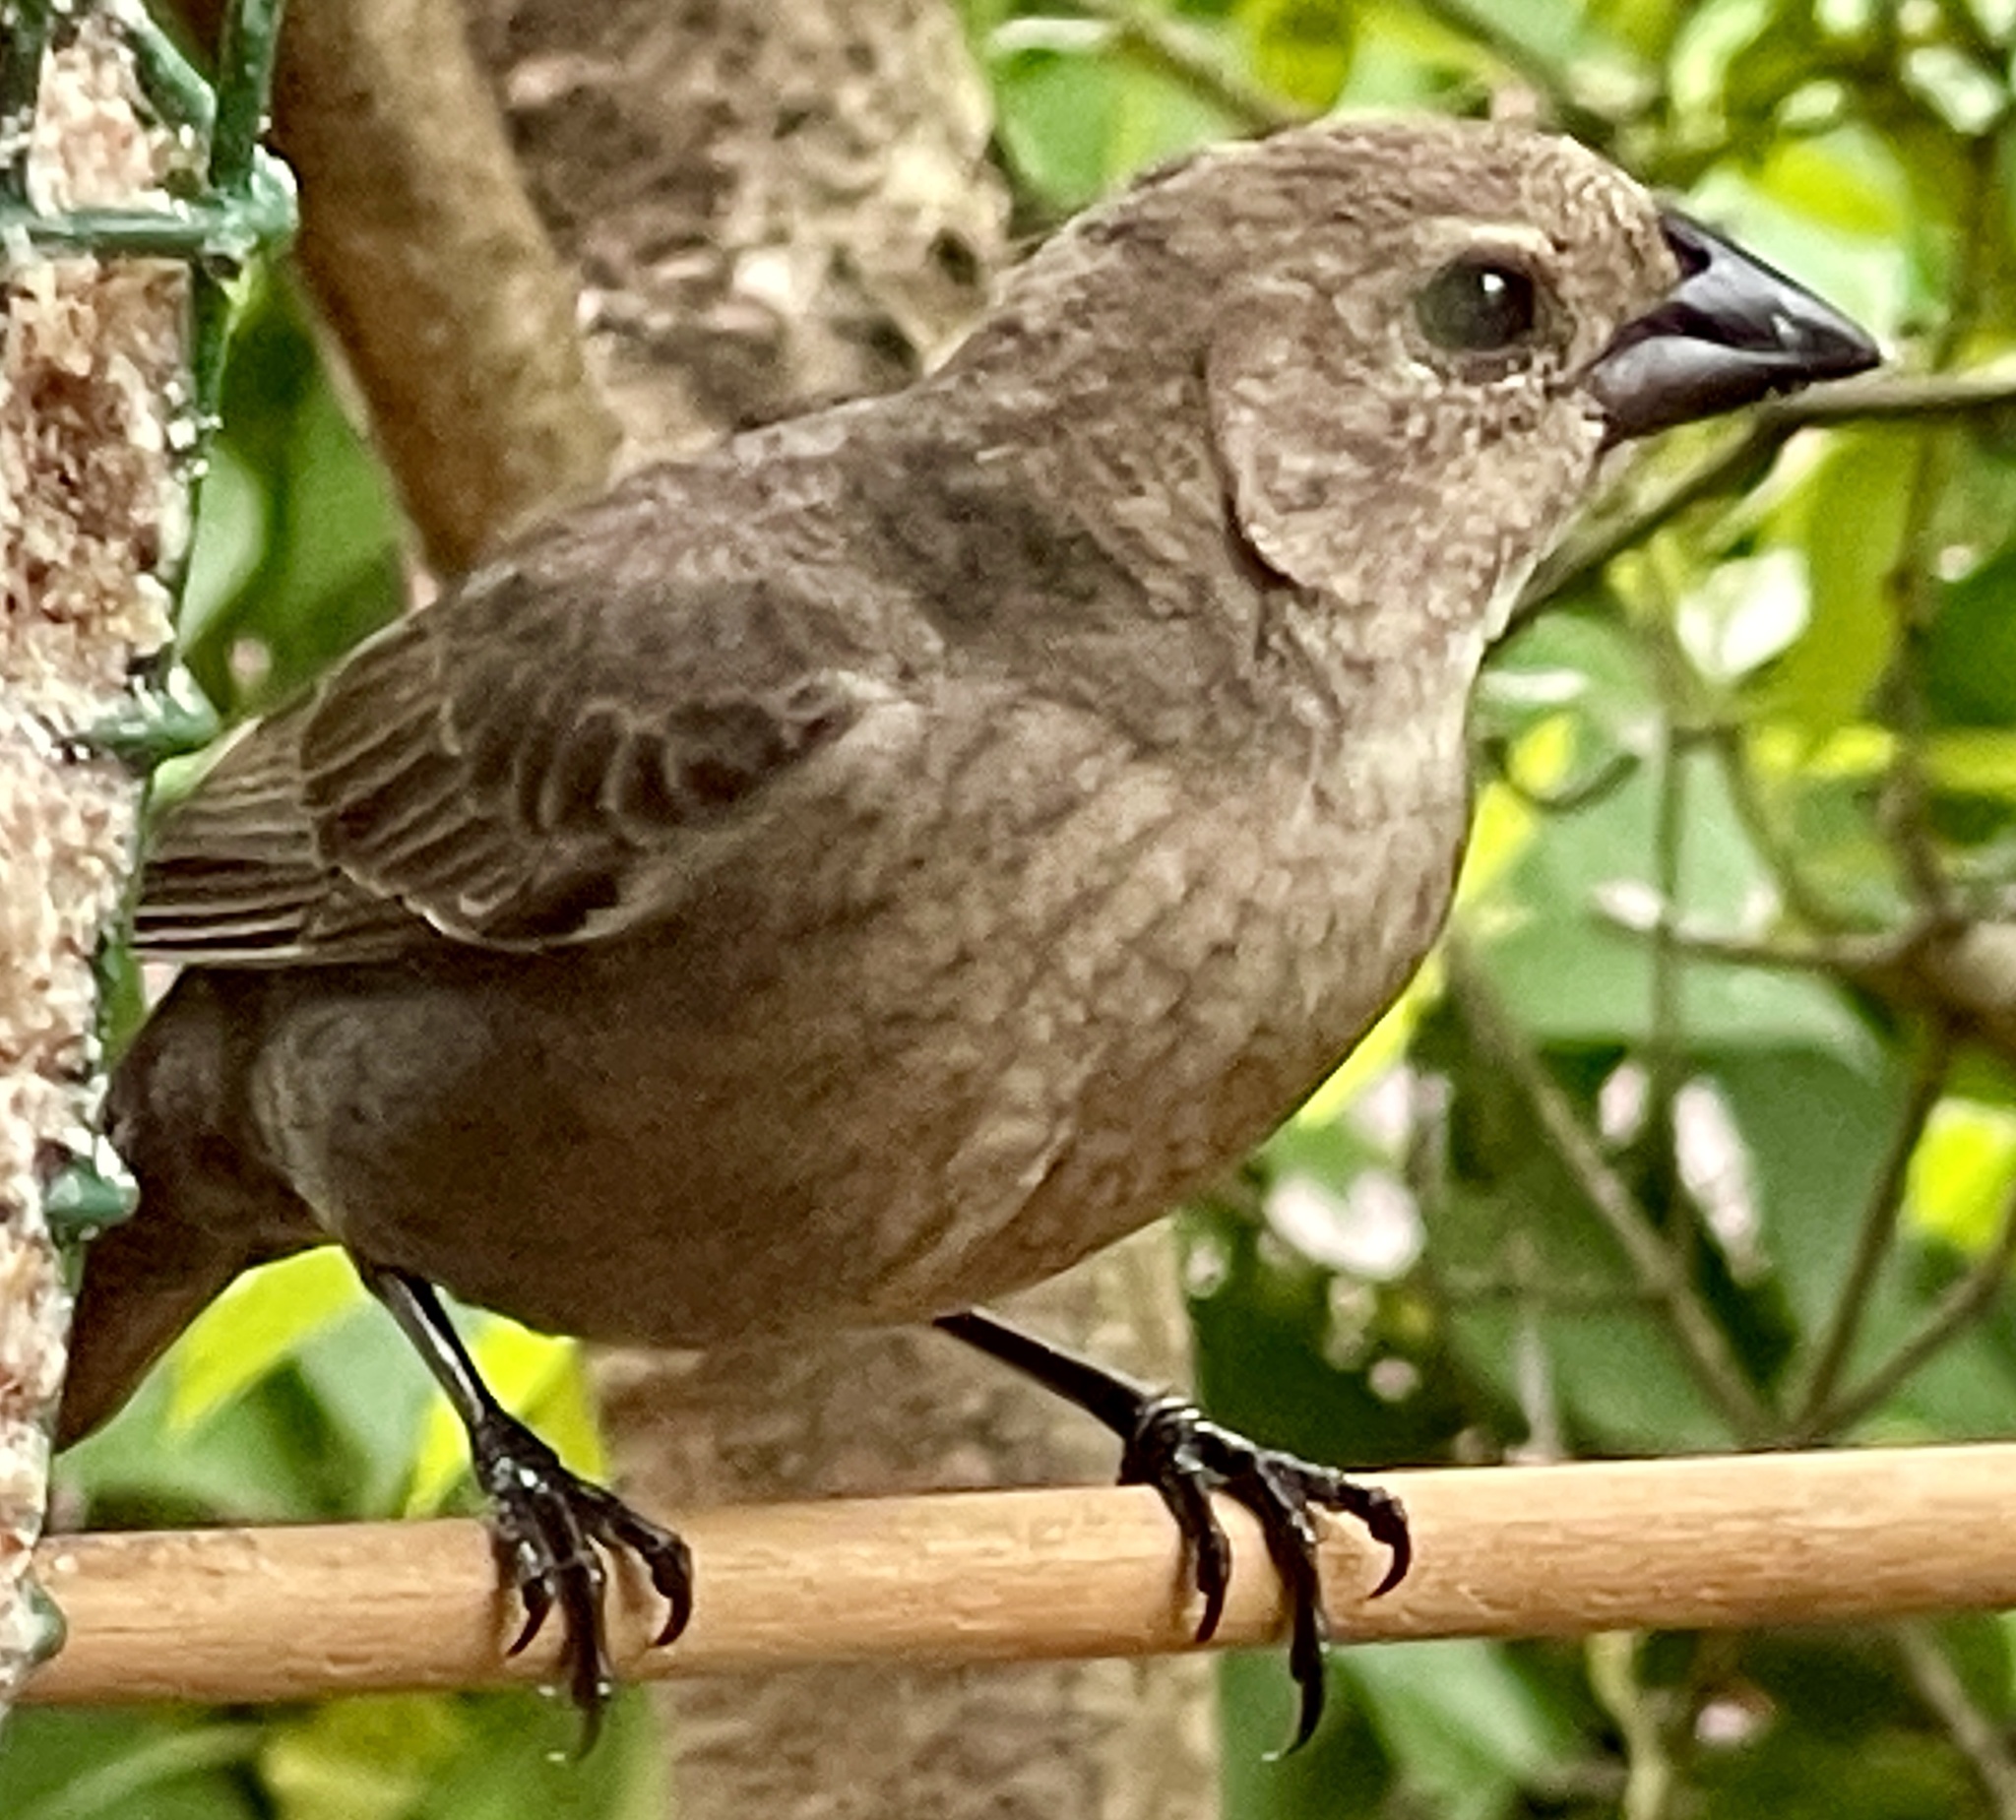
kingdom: Animalia
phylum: Chordata
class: Aves
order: Passeriformes
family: Icteridae
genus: Molothrus
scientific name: Molothrus ater
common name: Brown-headed cowbird
